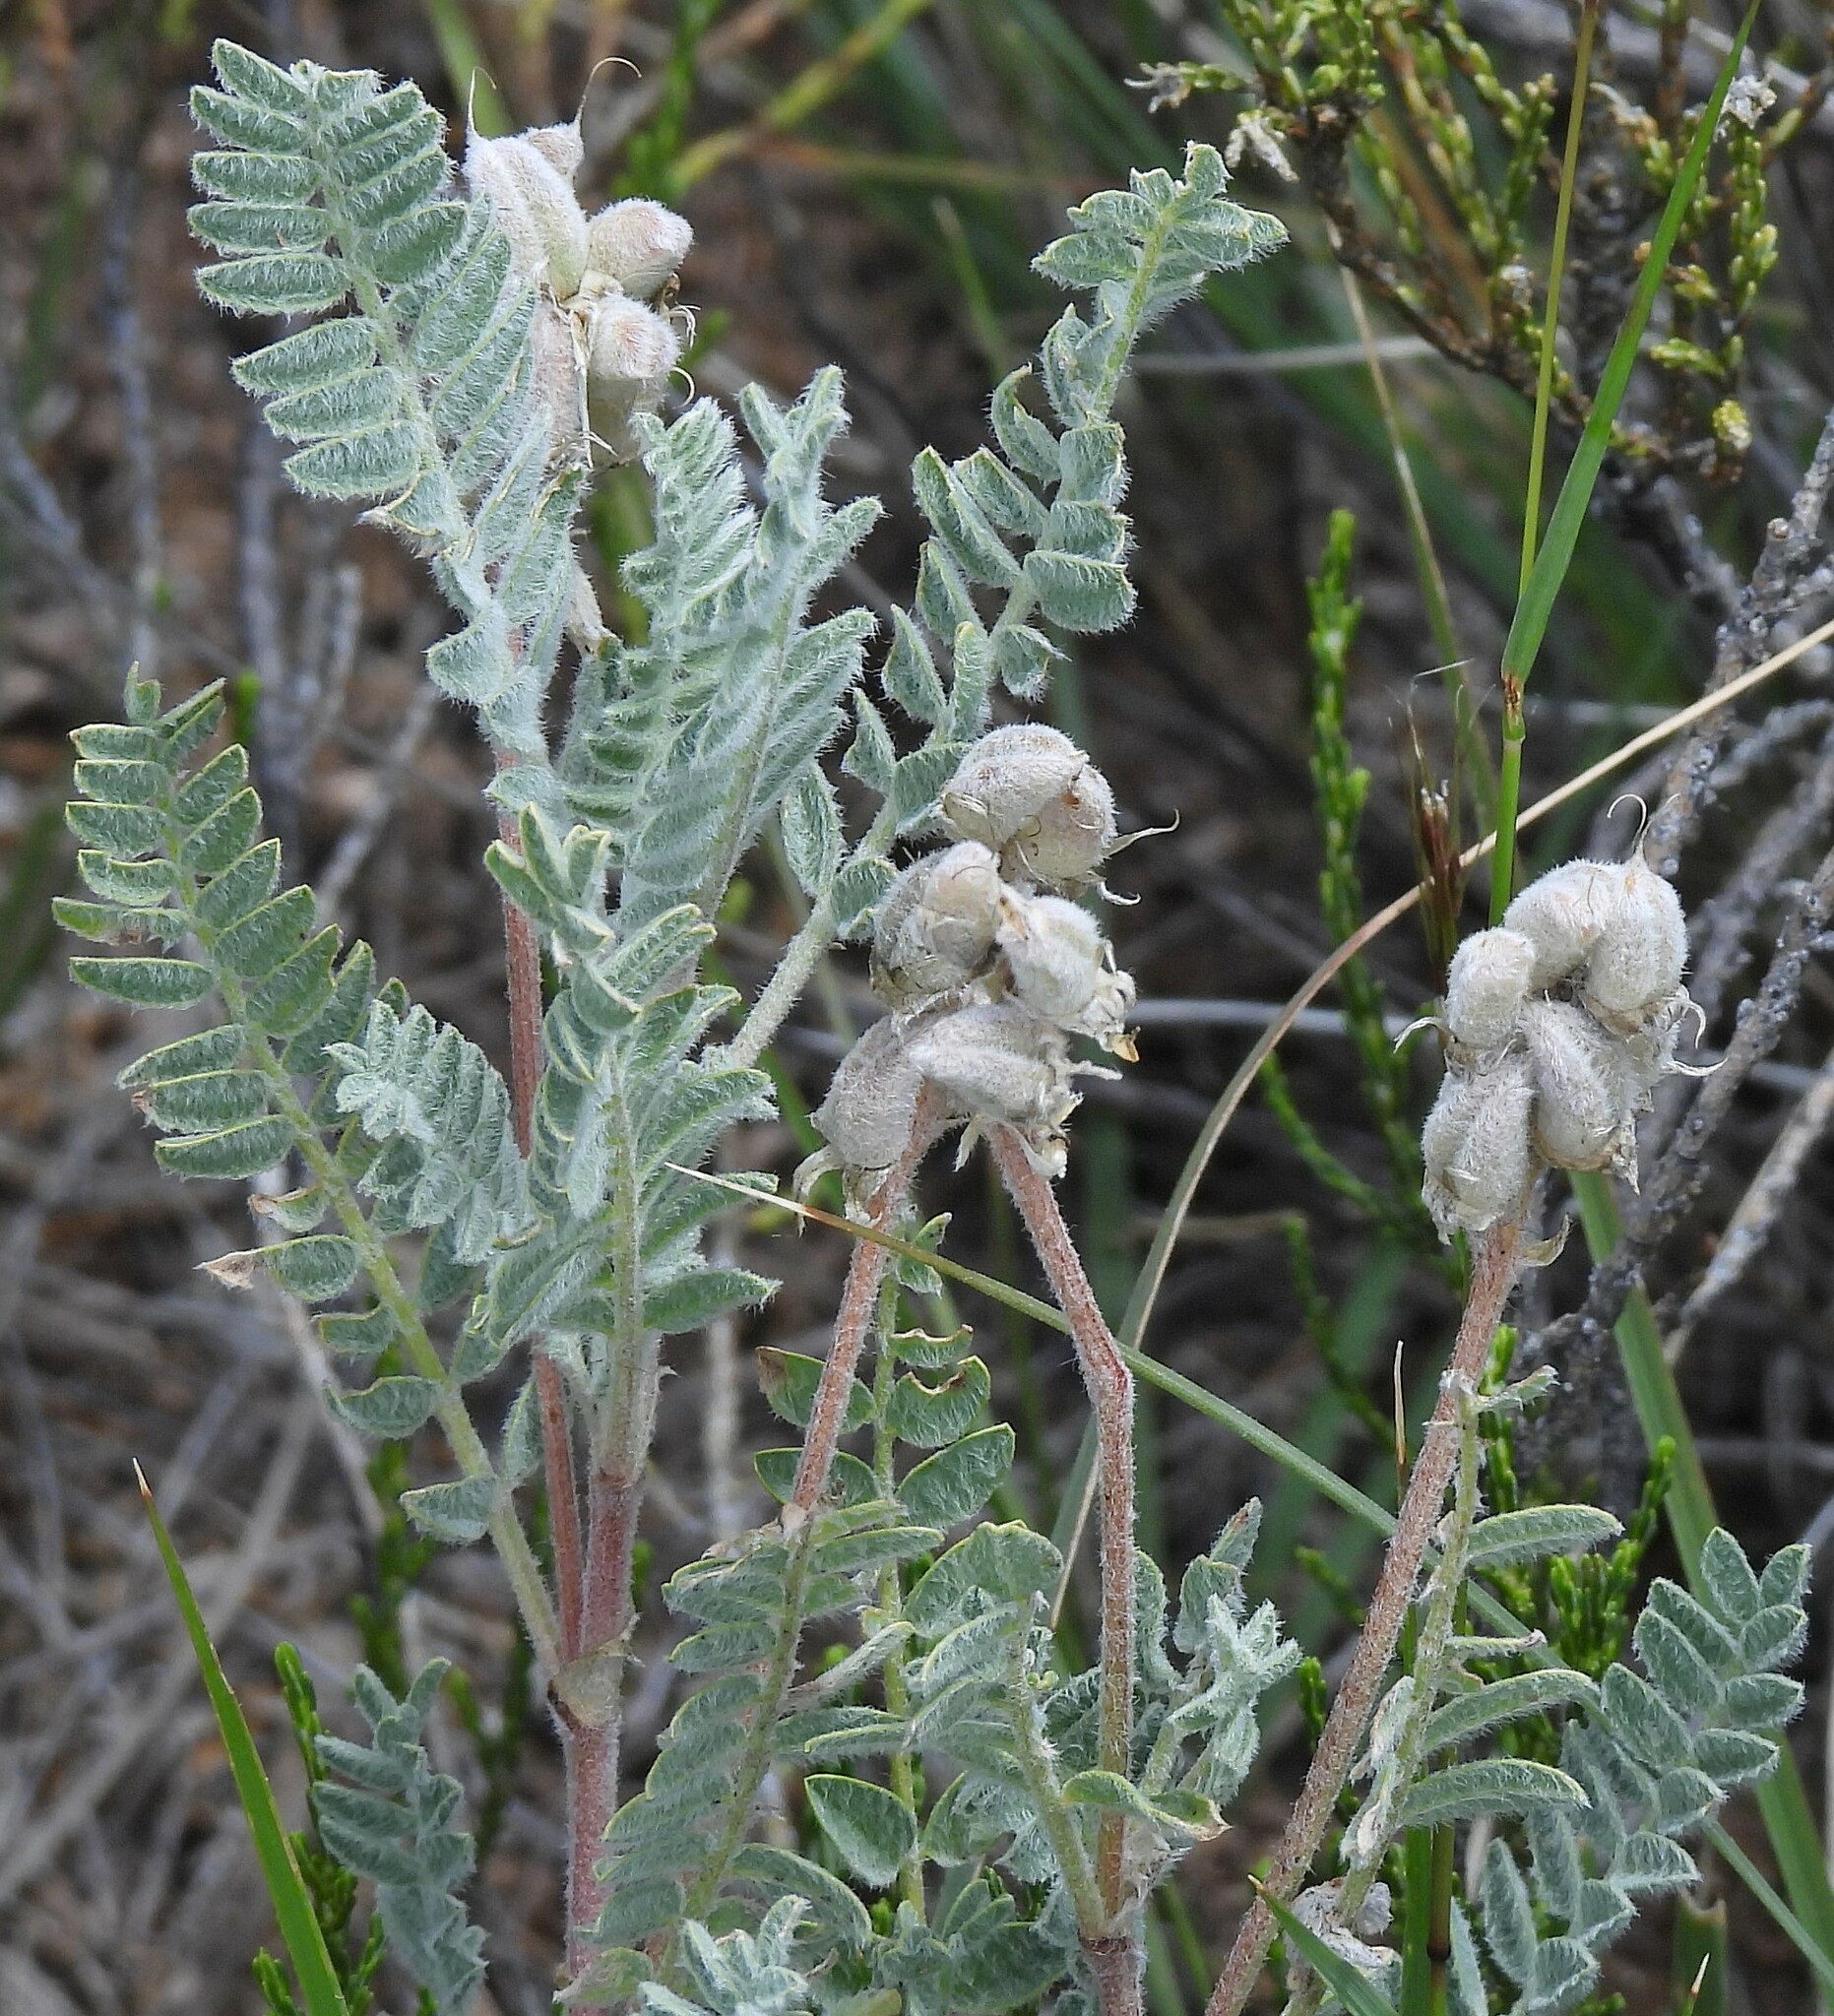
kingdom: Plantae
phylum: Tracheophyta
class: Magnoliopsida
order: Fabales
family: Fabaceae
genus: Astragalus
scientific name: Astragalus garbancillo
